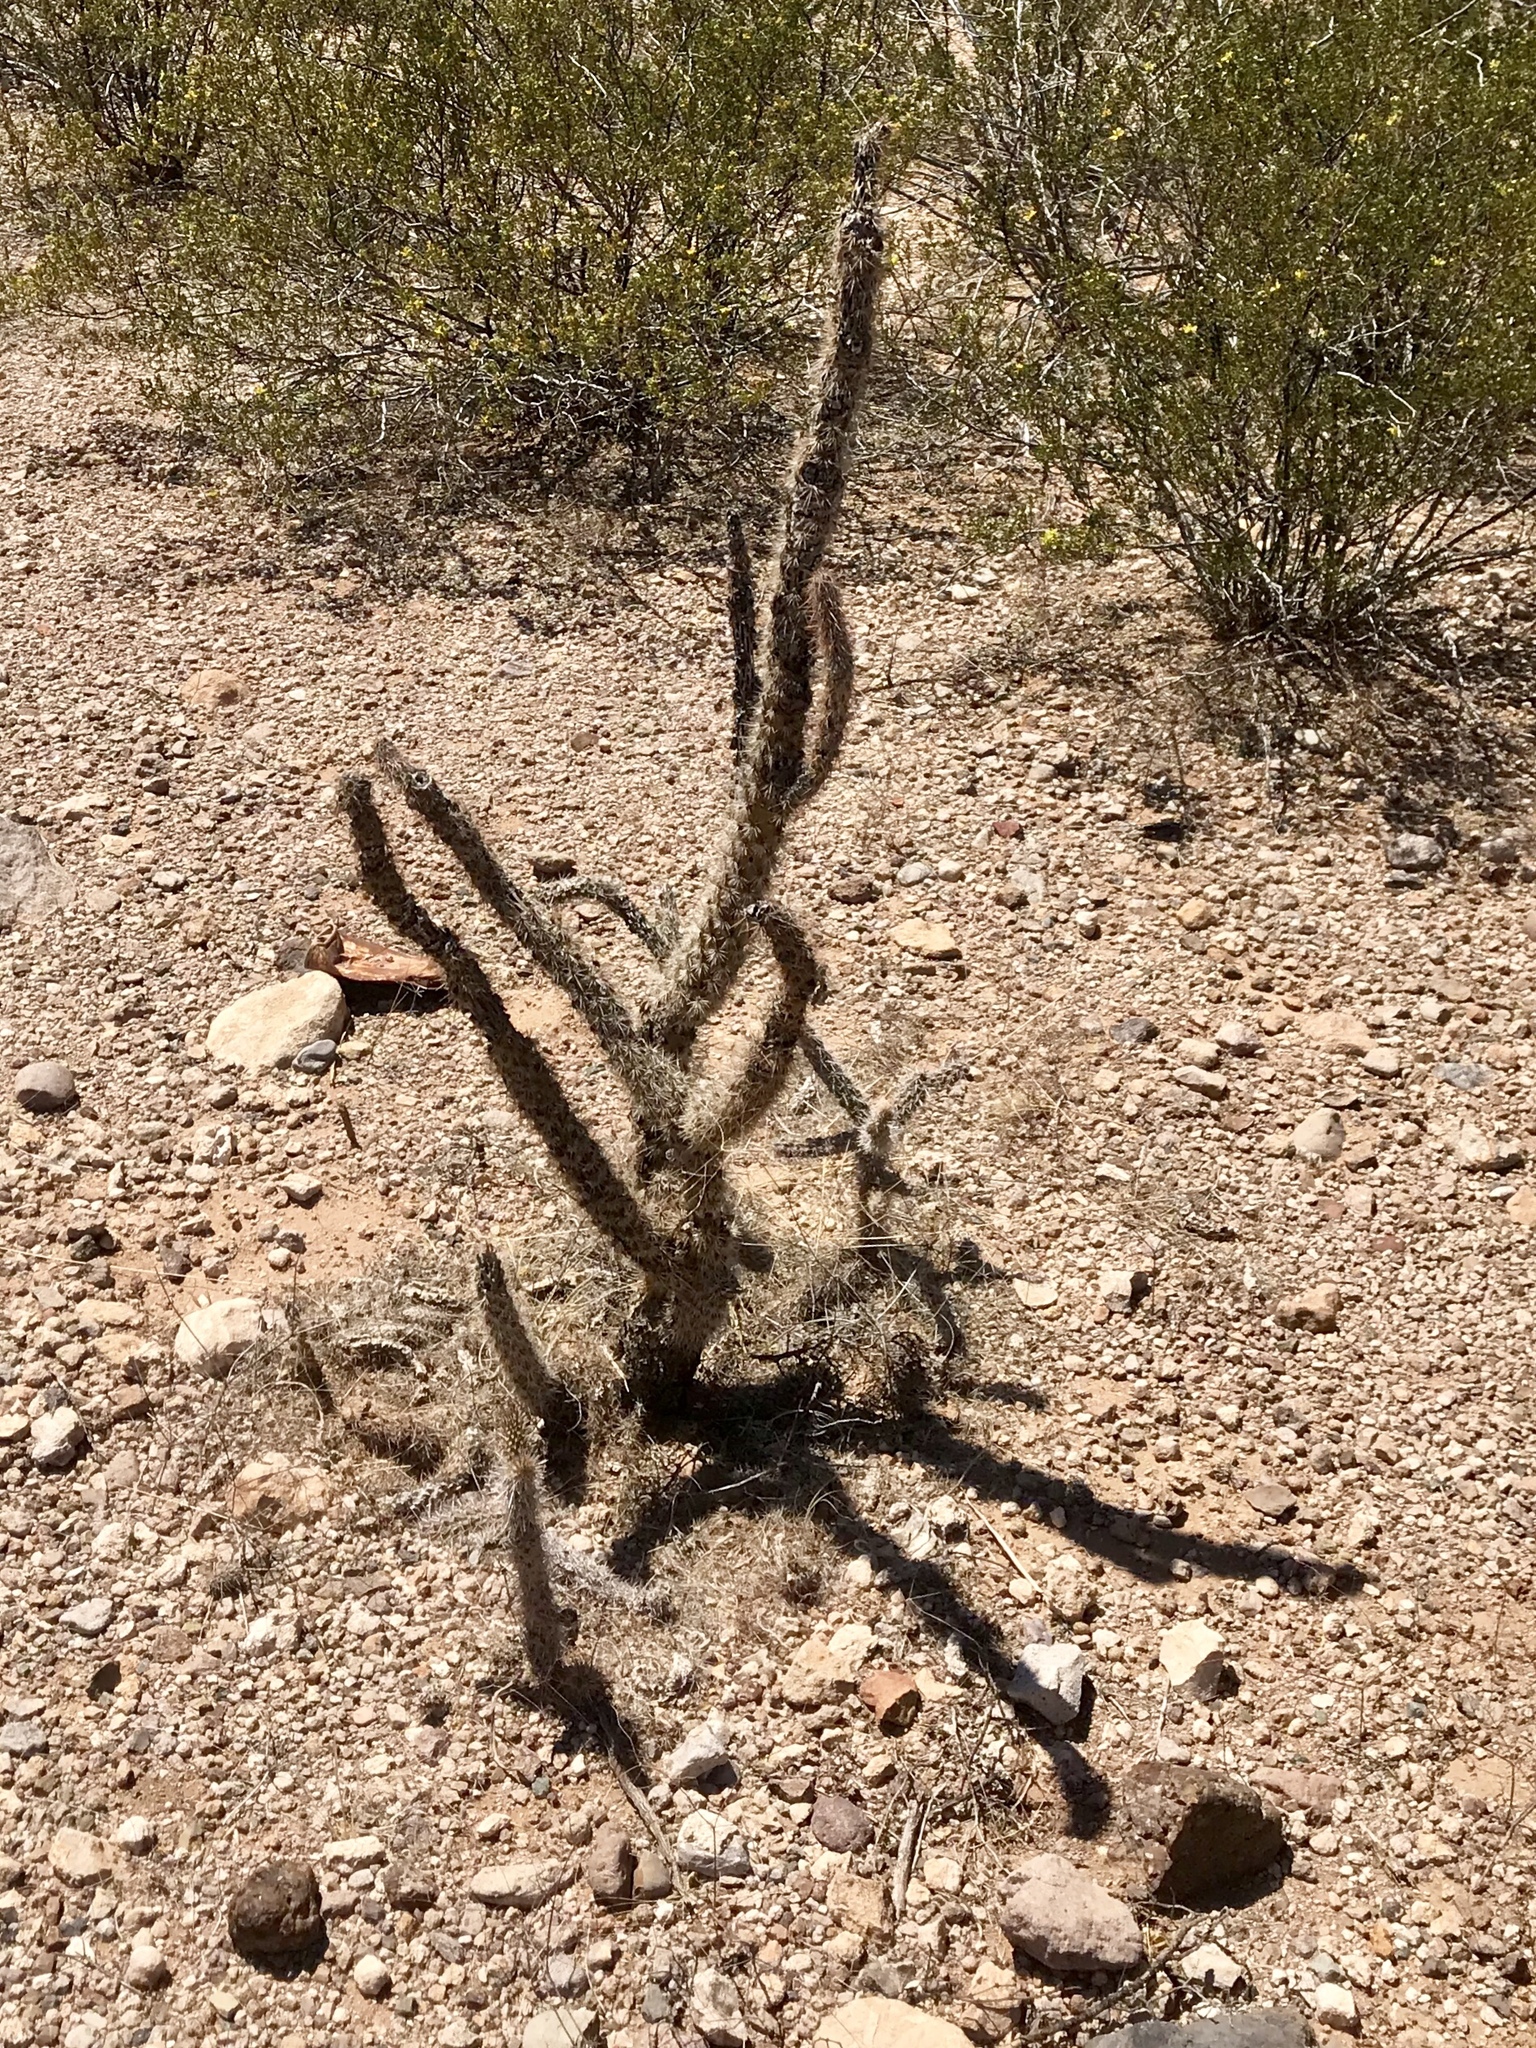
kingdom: Plantae
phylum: Tracheophyta
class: Magnoliopsida
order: Caryophyllales
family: Cactaceae
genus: Cylindropuntia
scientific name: Cylindropuntia imbricata
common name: Candelabrum cactus
